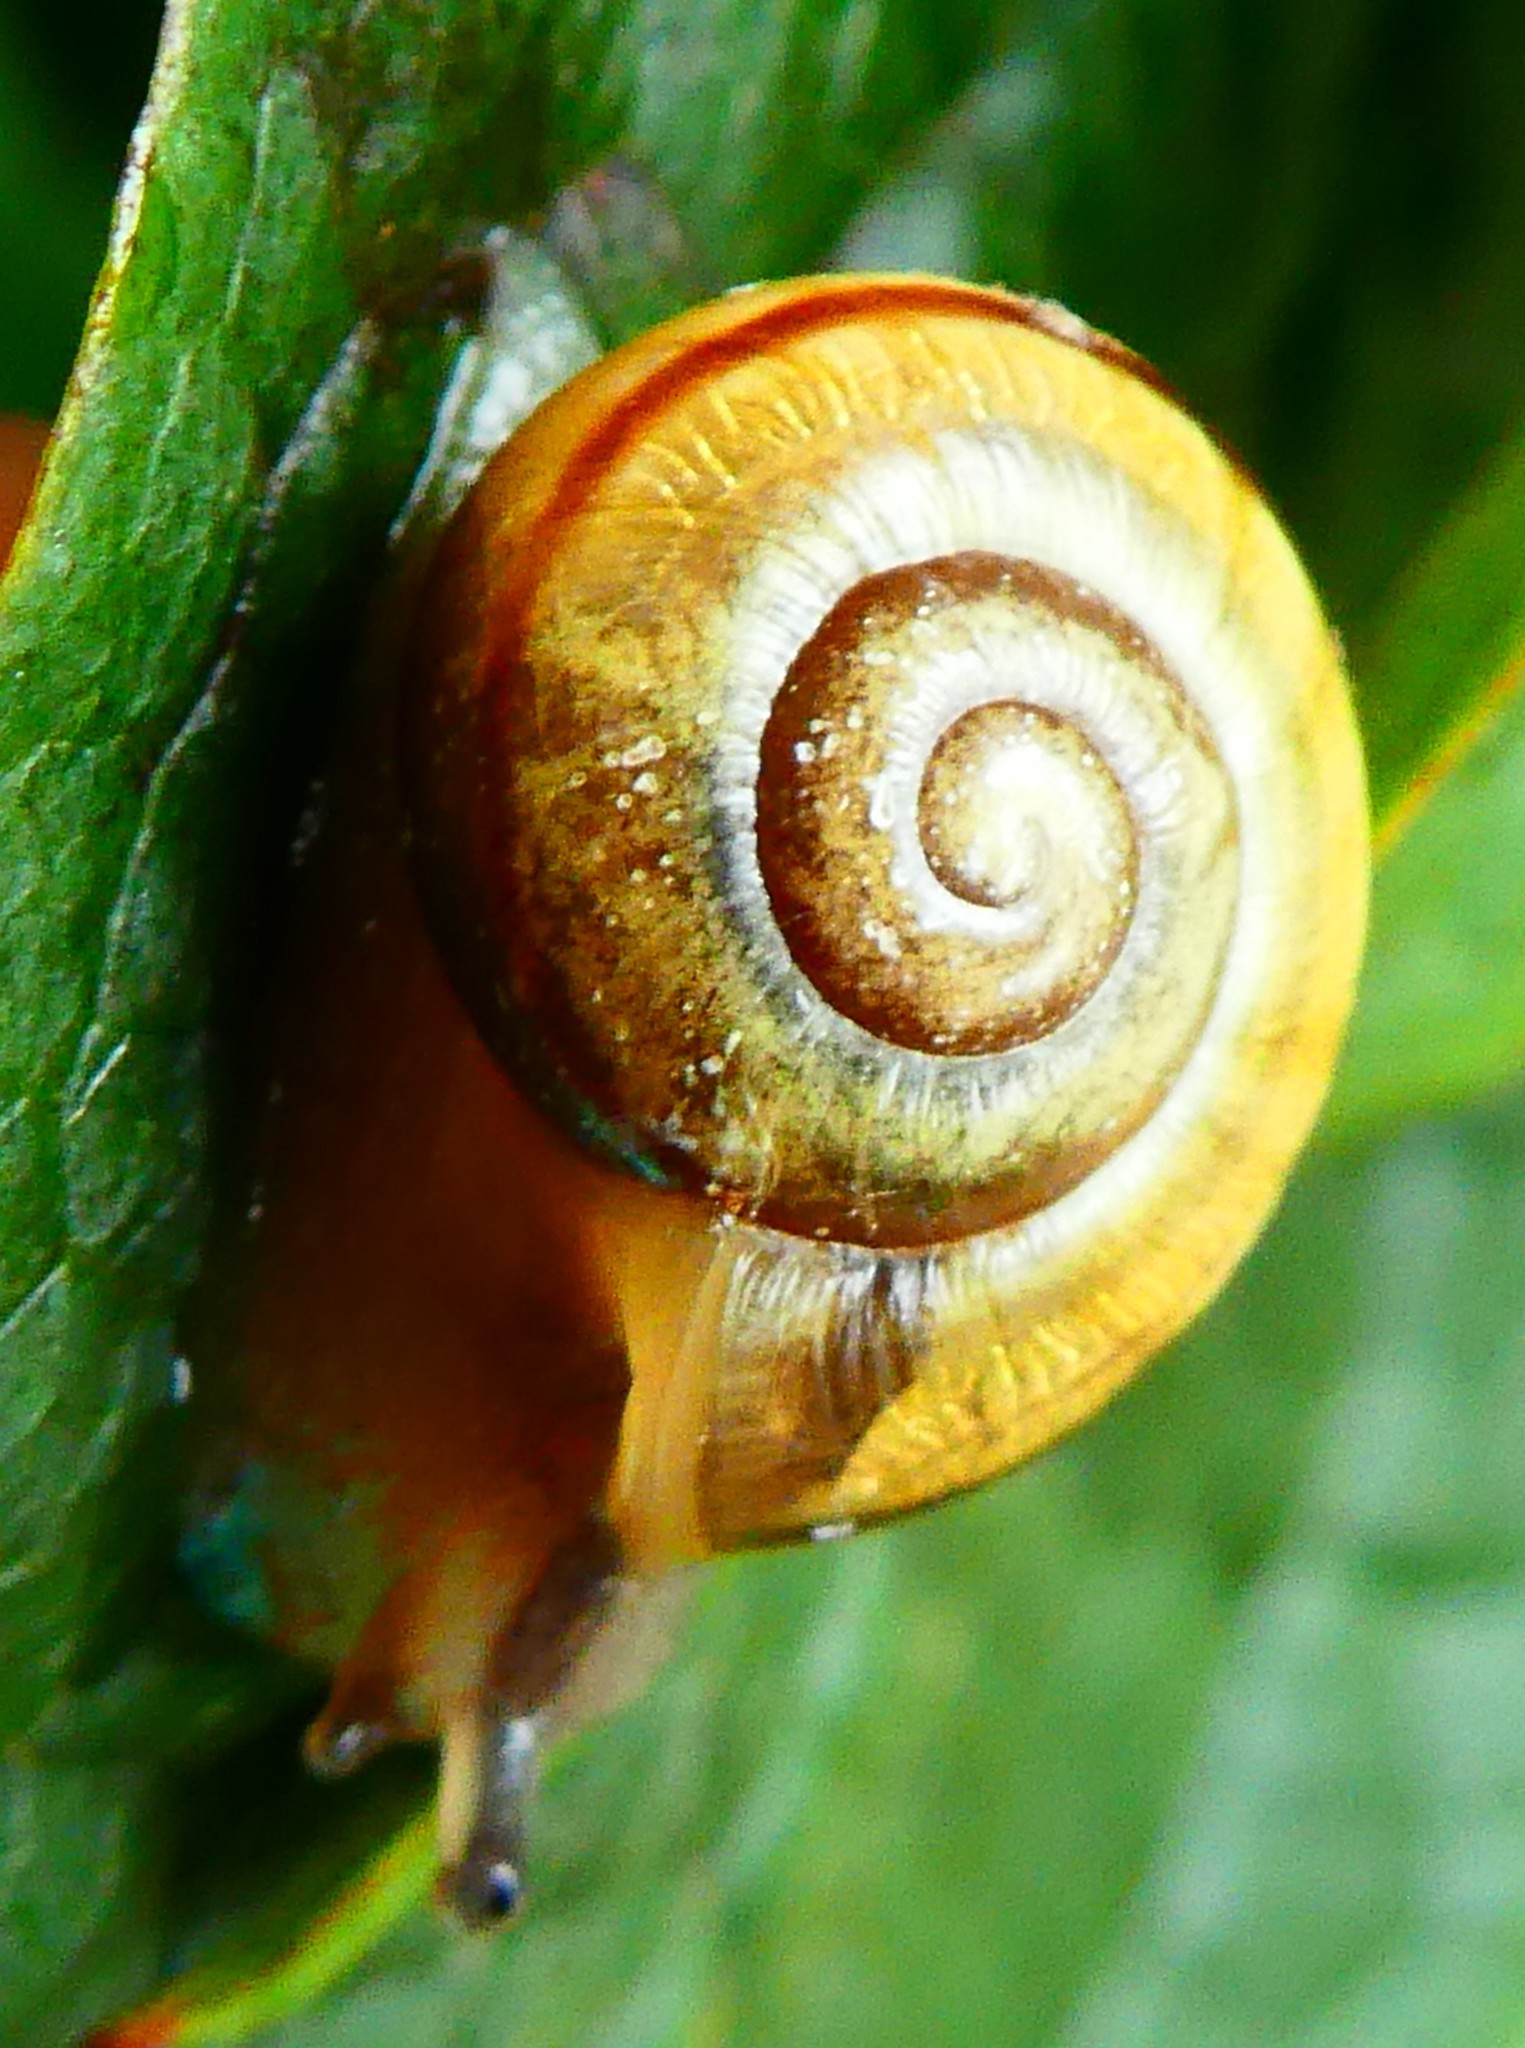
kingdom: Animalia
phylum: Mollusca
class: Gastropoda
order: Stylommatophora
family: Helicidae
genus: Cepaea
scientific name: Cepaea
